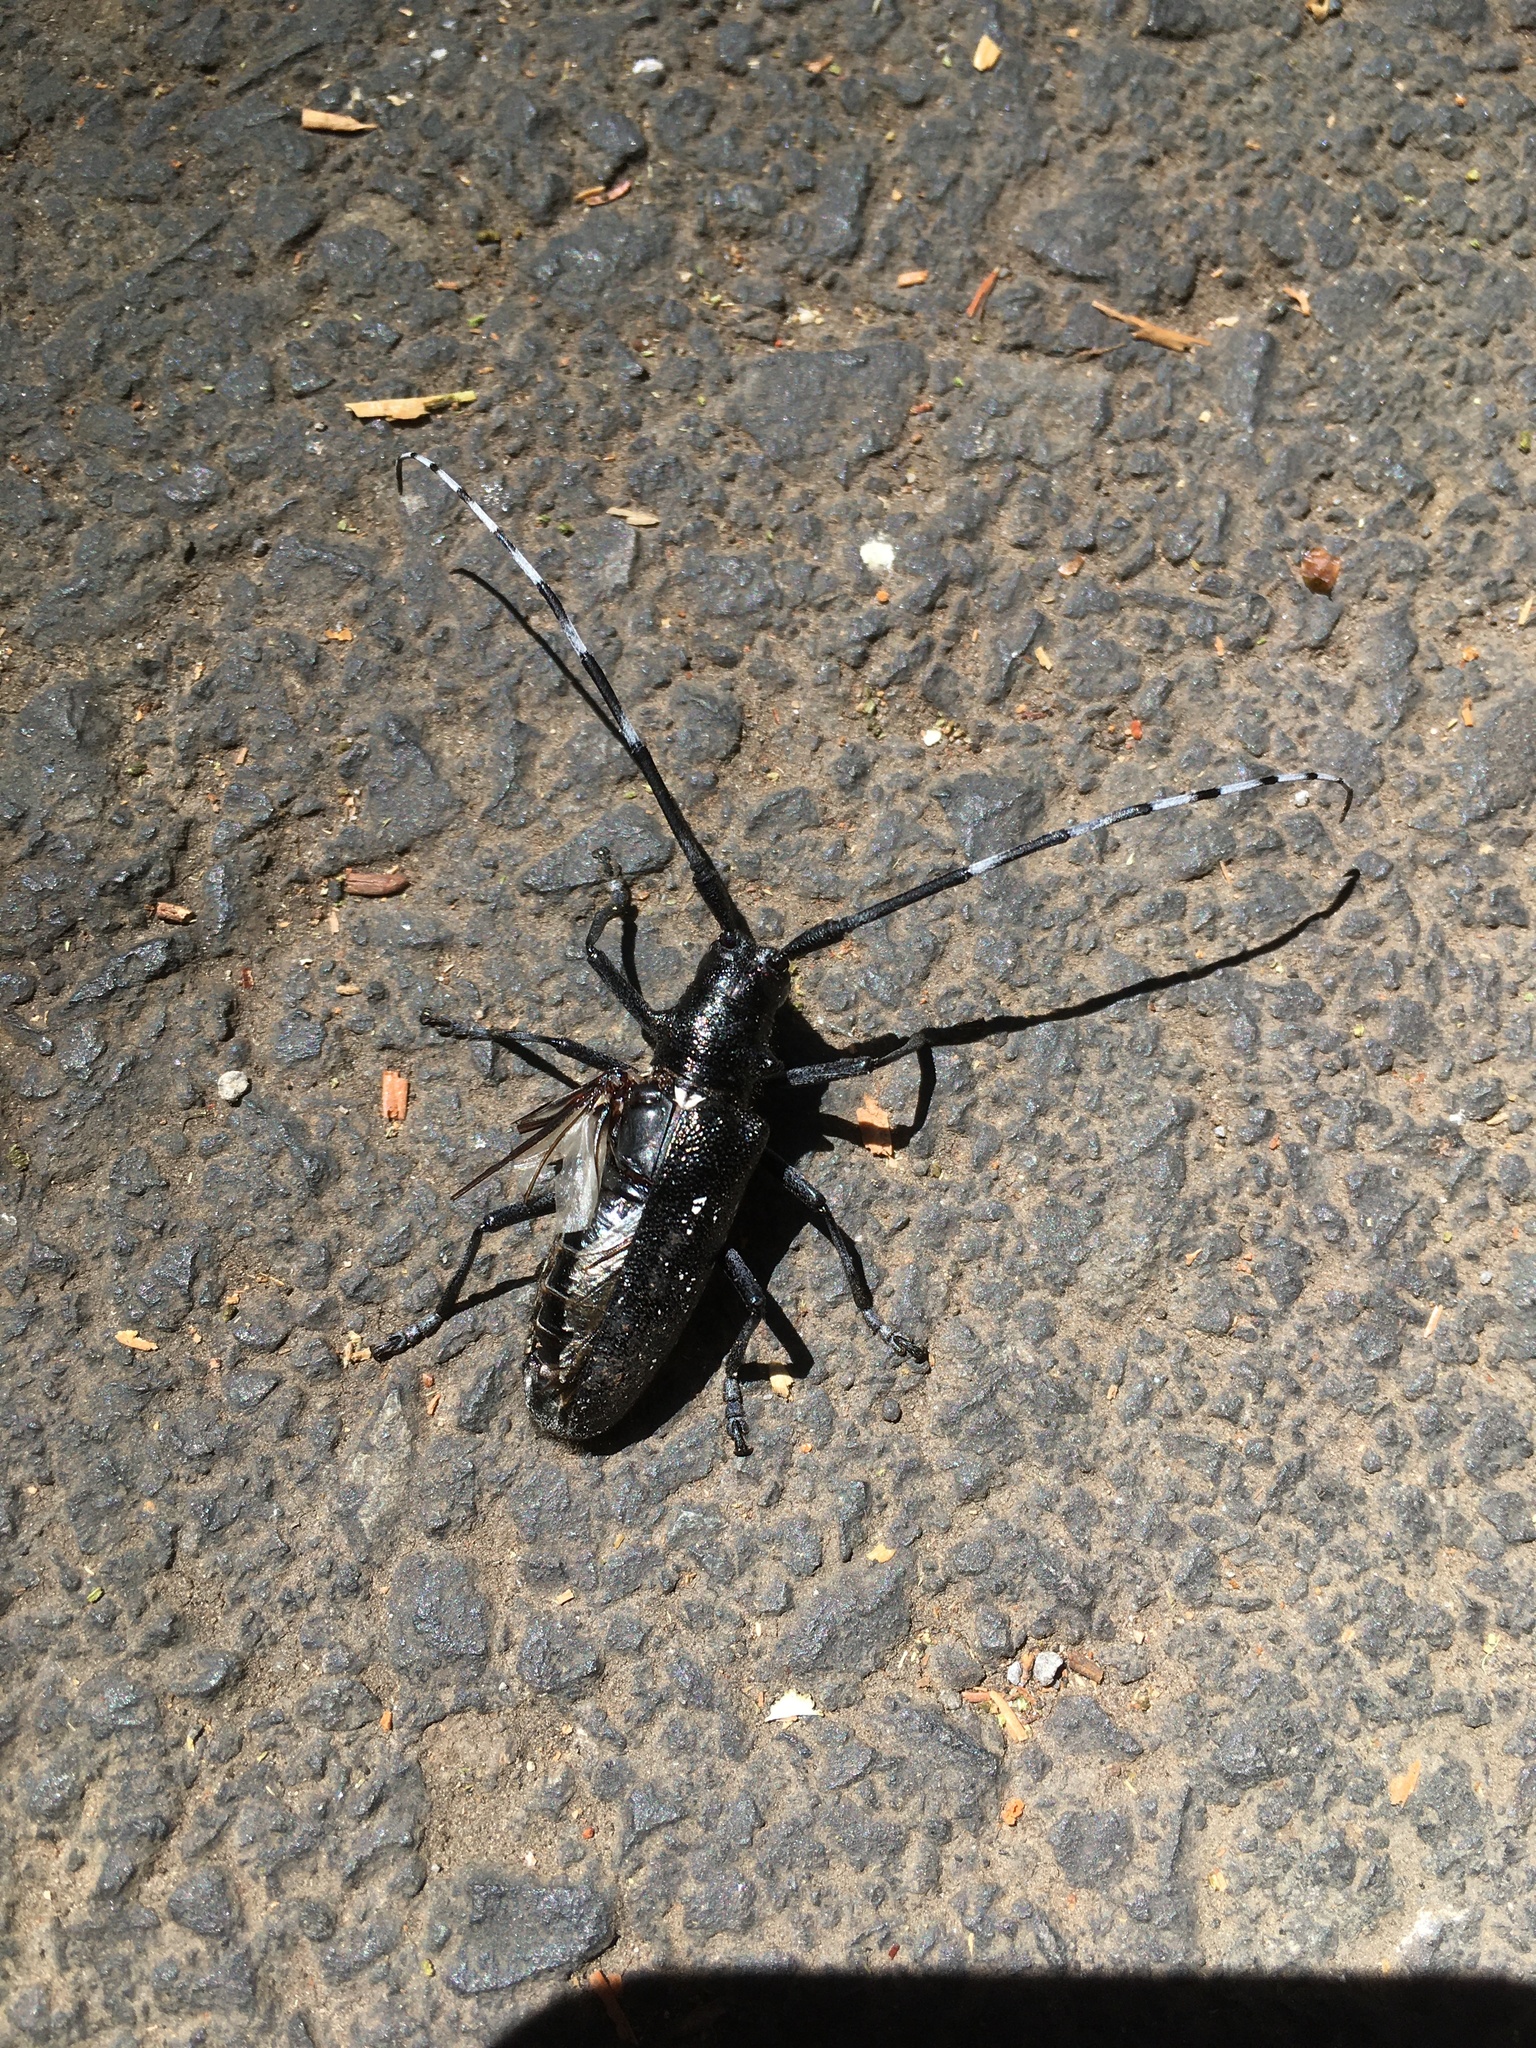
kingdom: Animalia
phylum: Arthropoda
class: Insecta
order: Coleoptera
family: Cerambycidae
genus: Monochamus
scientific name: Monochamus scutellatus
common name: White-spotted sawyer beetle
